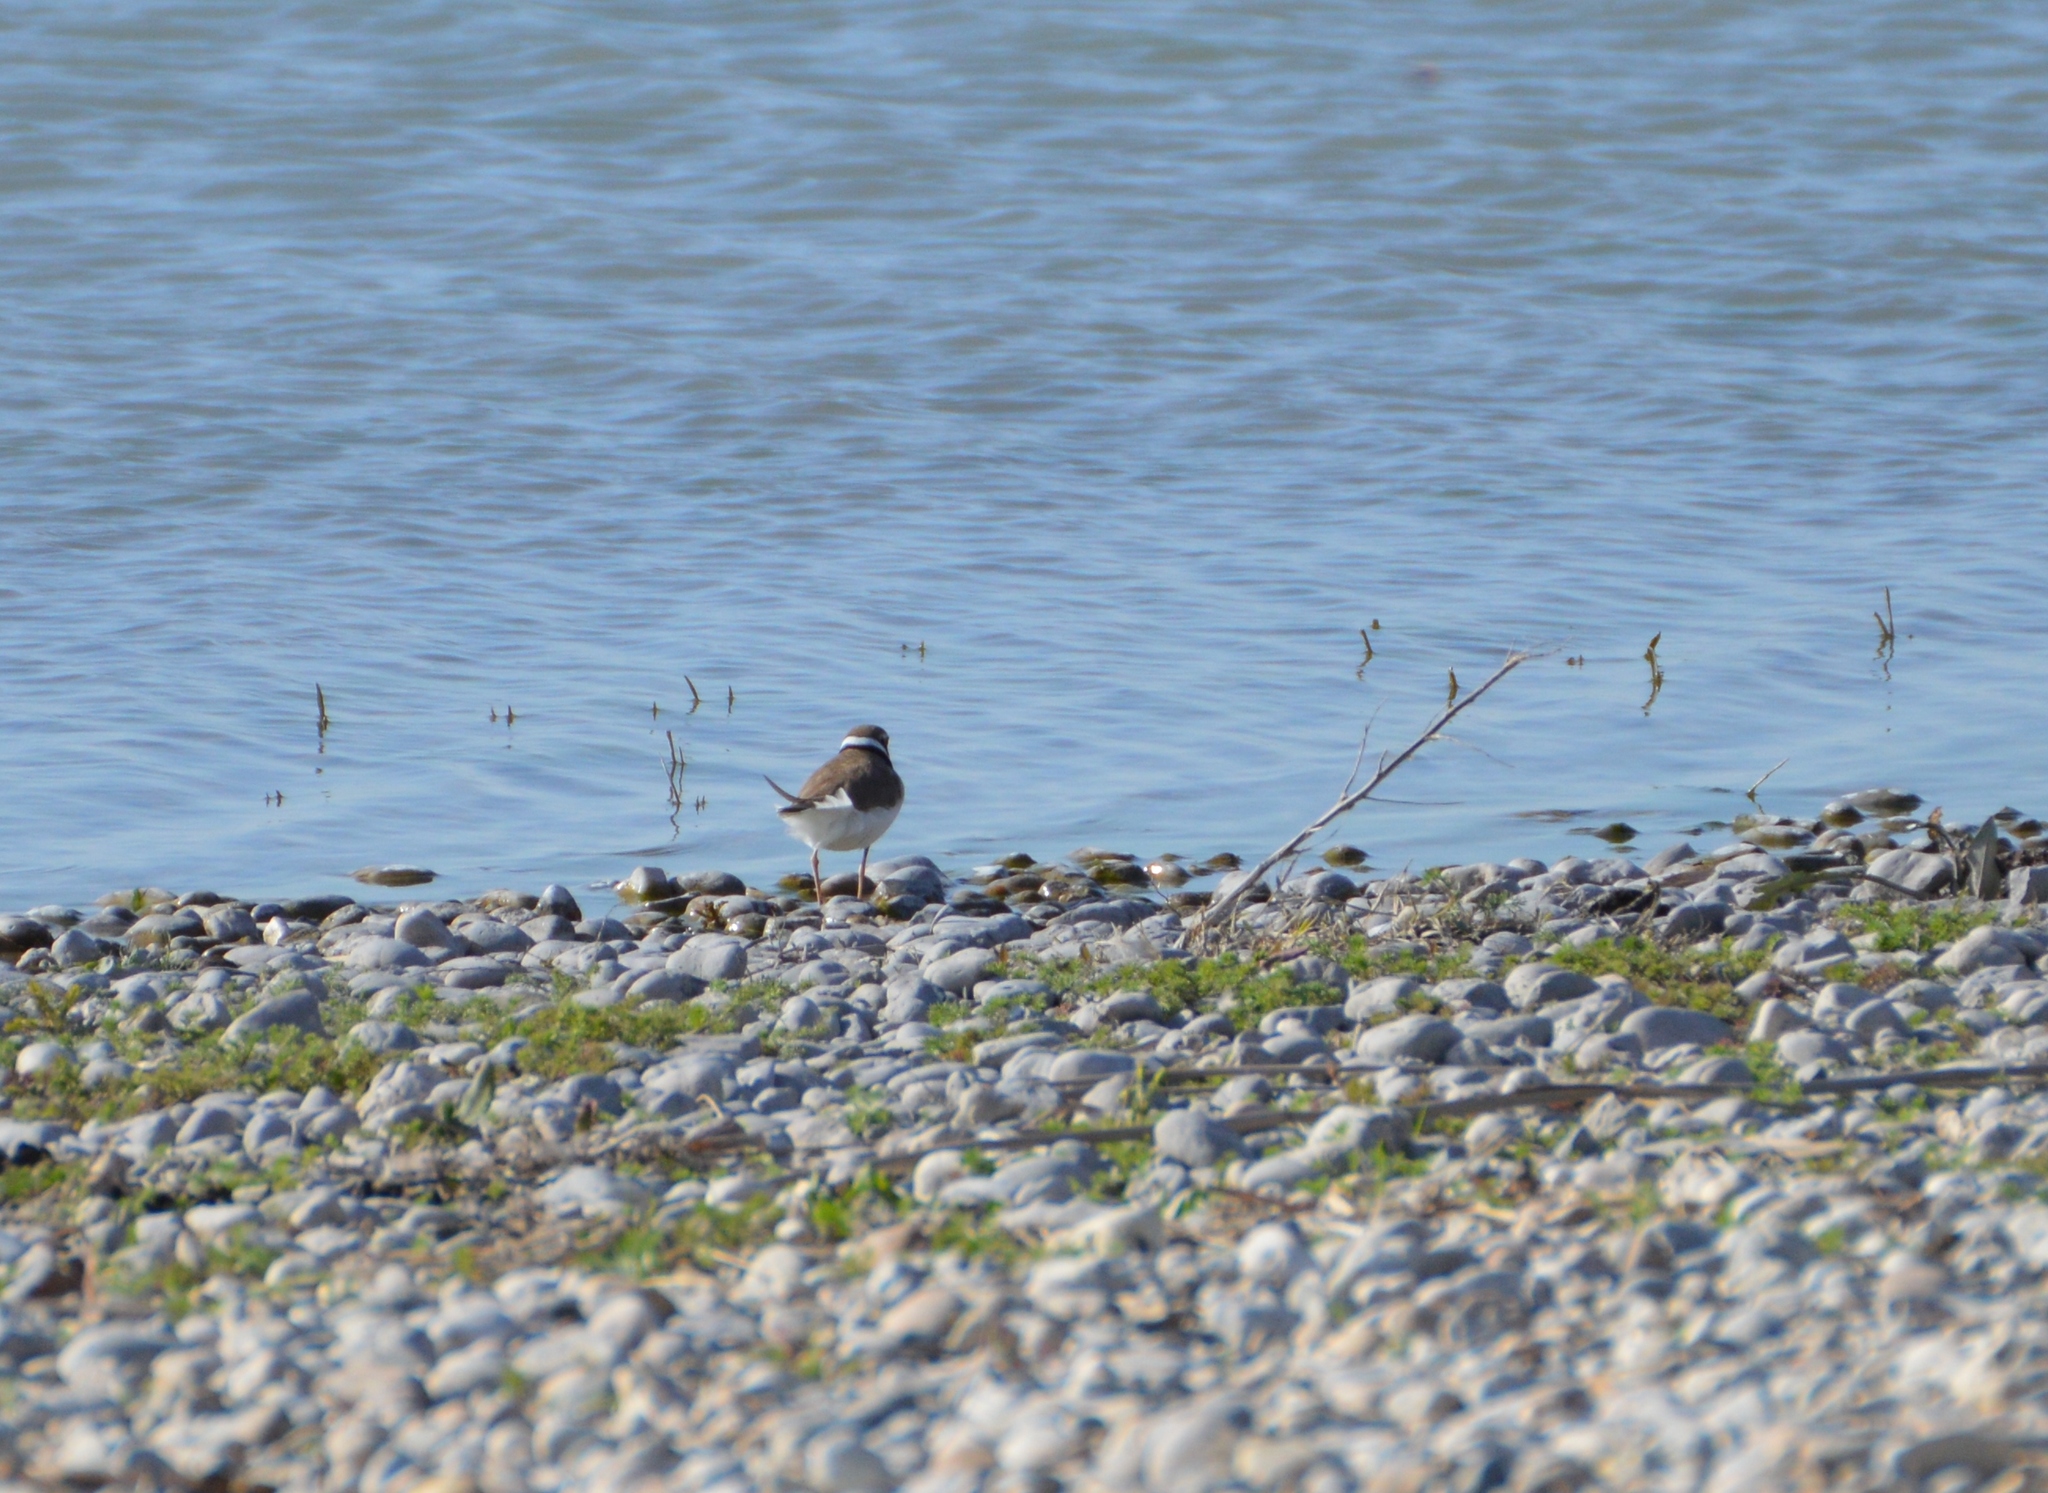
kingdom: Animalia
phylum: Chordata
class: Aves
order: Charadriiformes
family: Charadriidae
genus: Charadrius
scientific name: Charadrius dubius
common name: Little ringed plover
